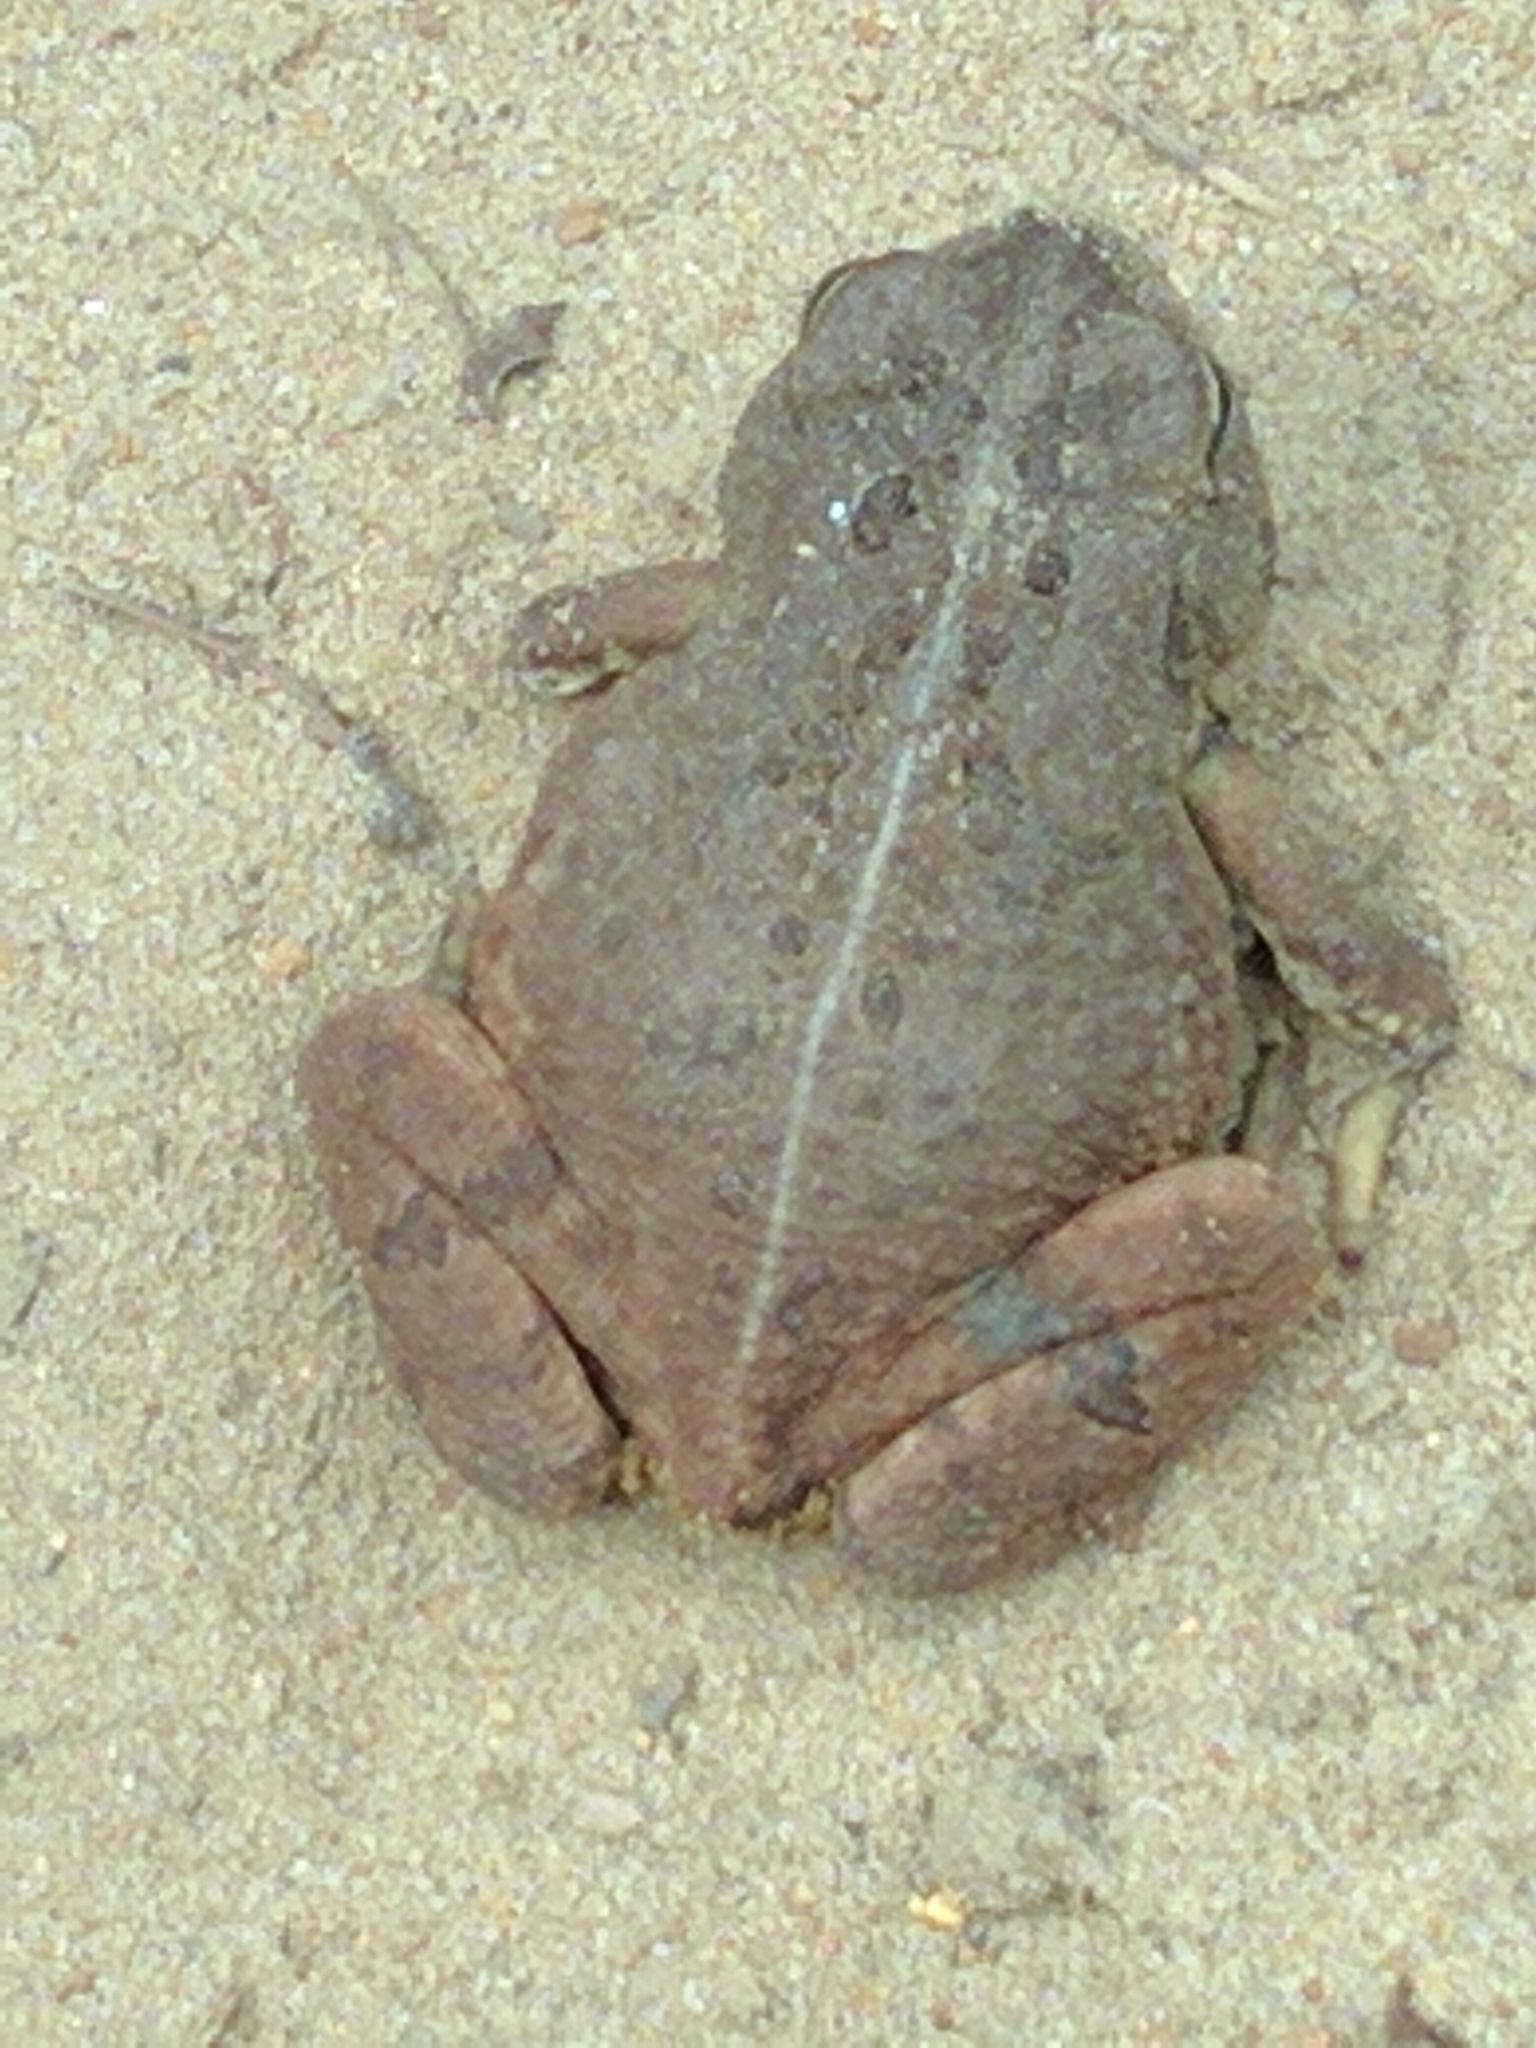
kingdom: Animalia
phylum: Chordata
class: Amphibia
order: Anura
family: Bufonidae
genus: Anaxyrus
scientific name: Anaxyrus fowleri
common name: Fowler's toad
